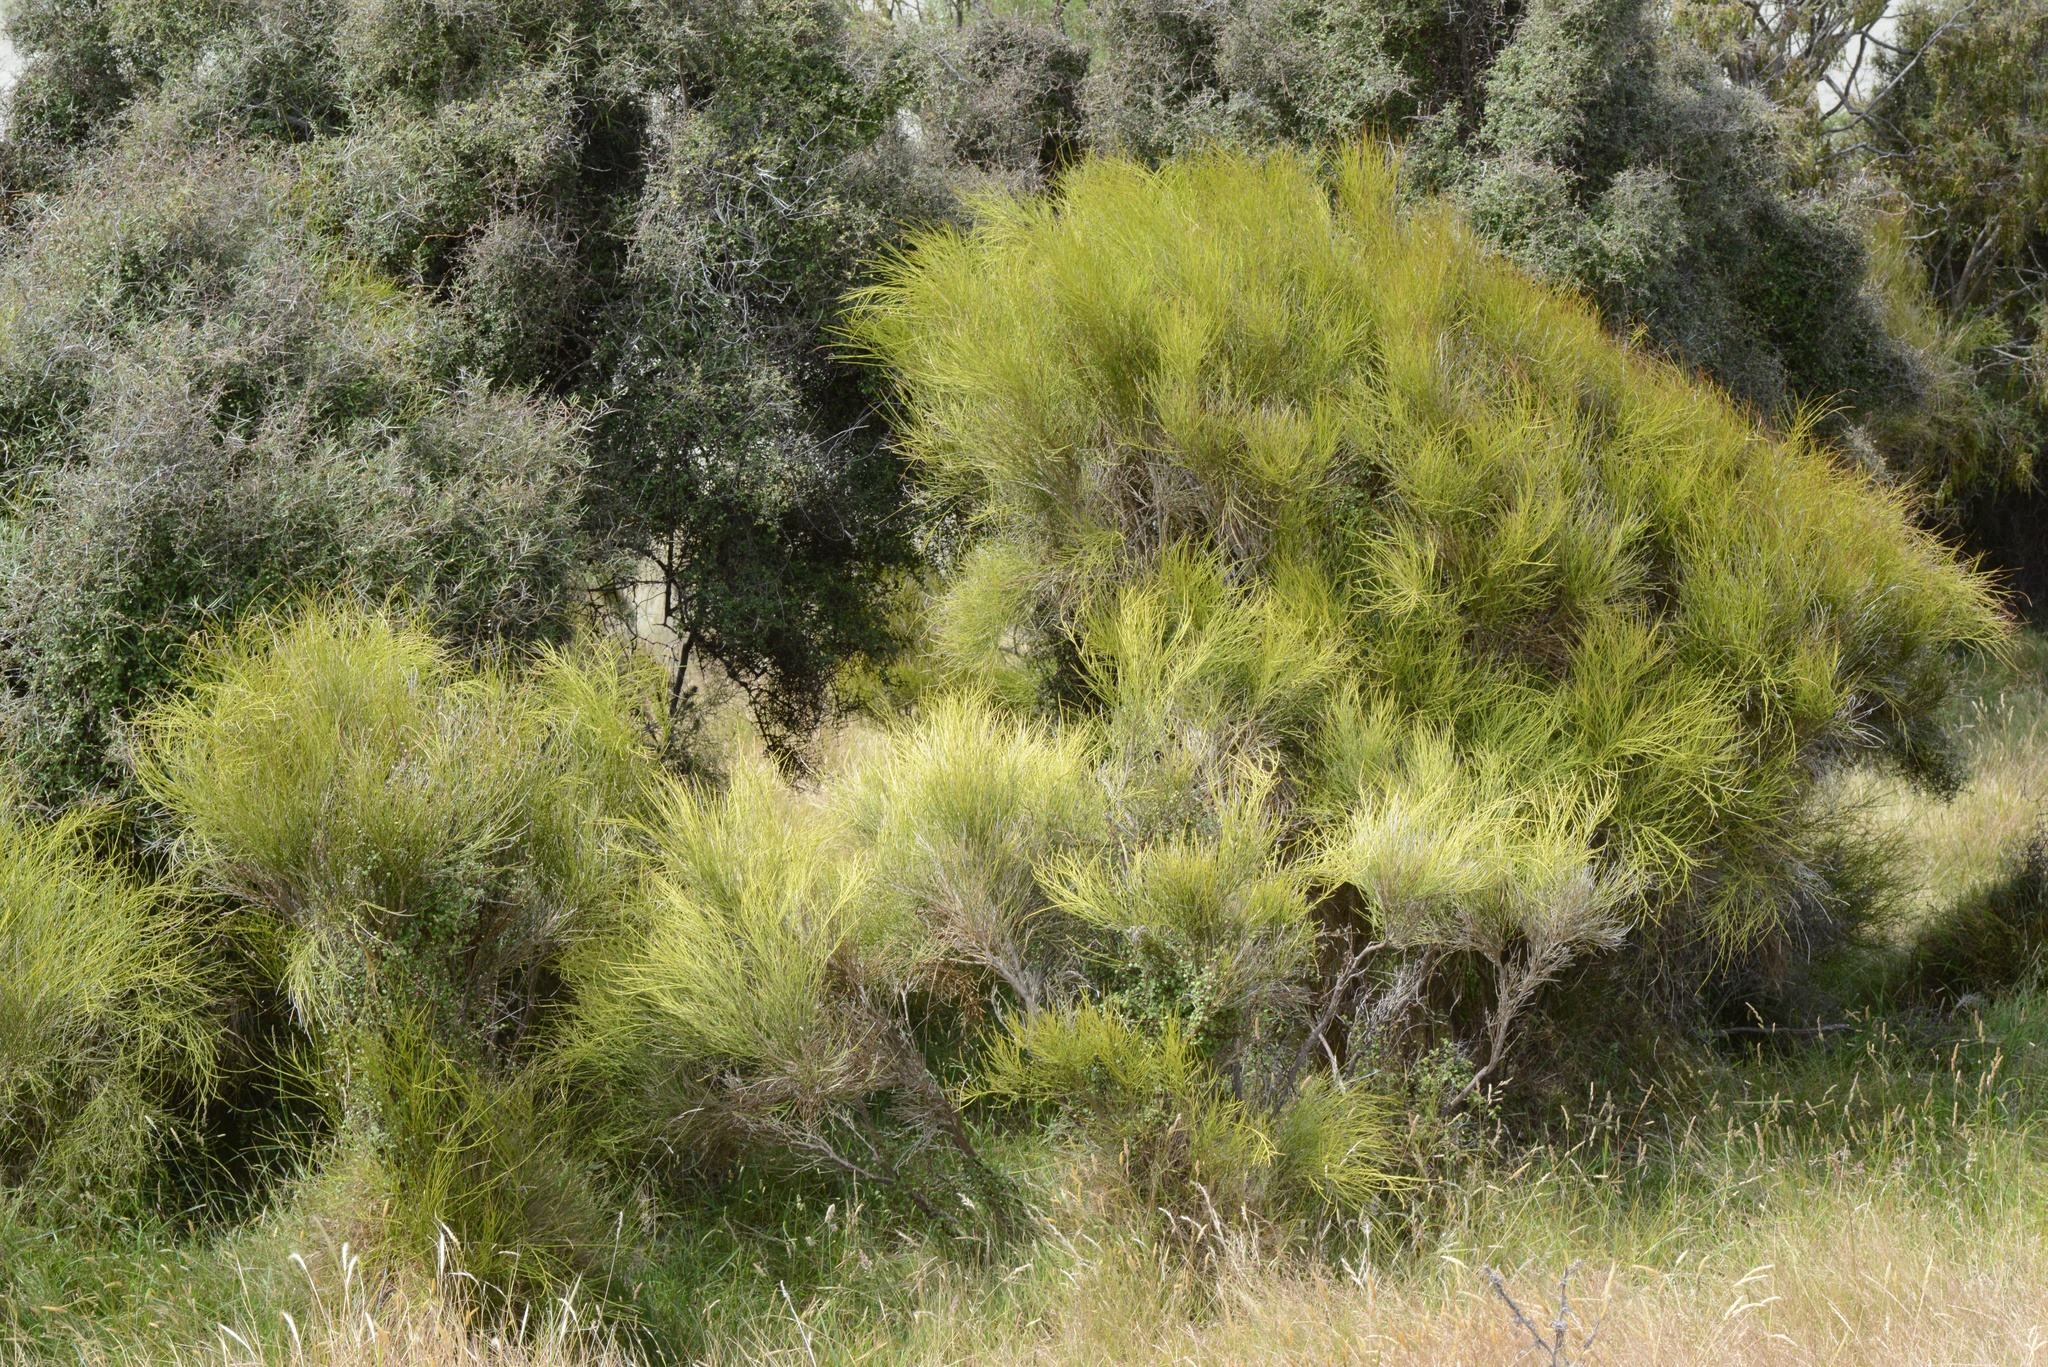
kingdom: Plantae
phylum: Tracheophyta
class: Magnoliopsida
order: Fabales
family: Fabaceae
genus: Carmichaelia
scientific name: Carmichaelia australis
